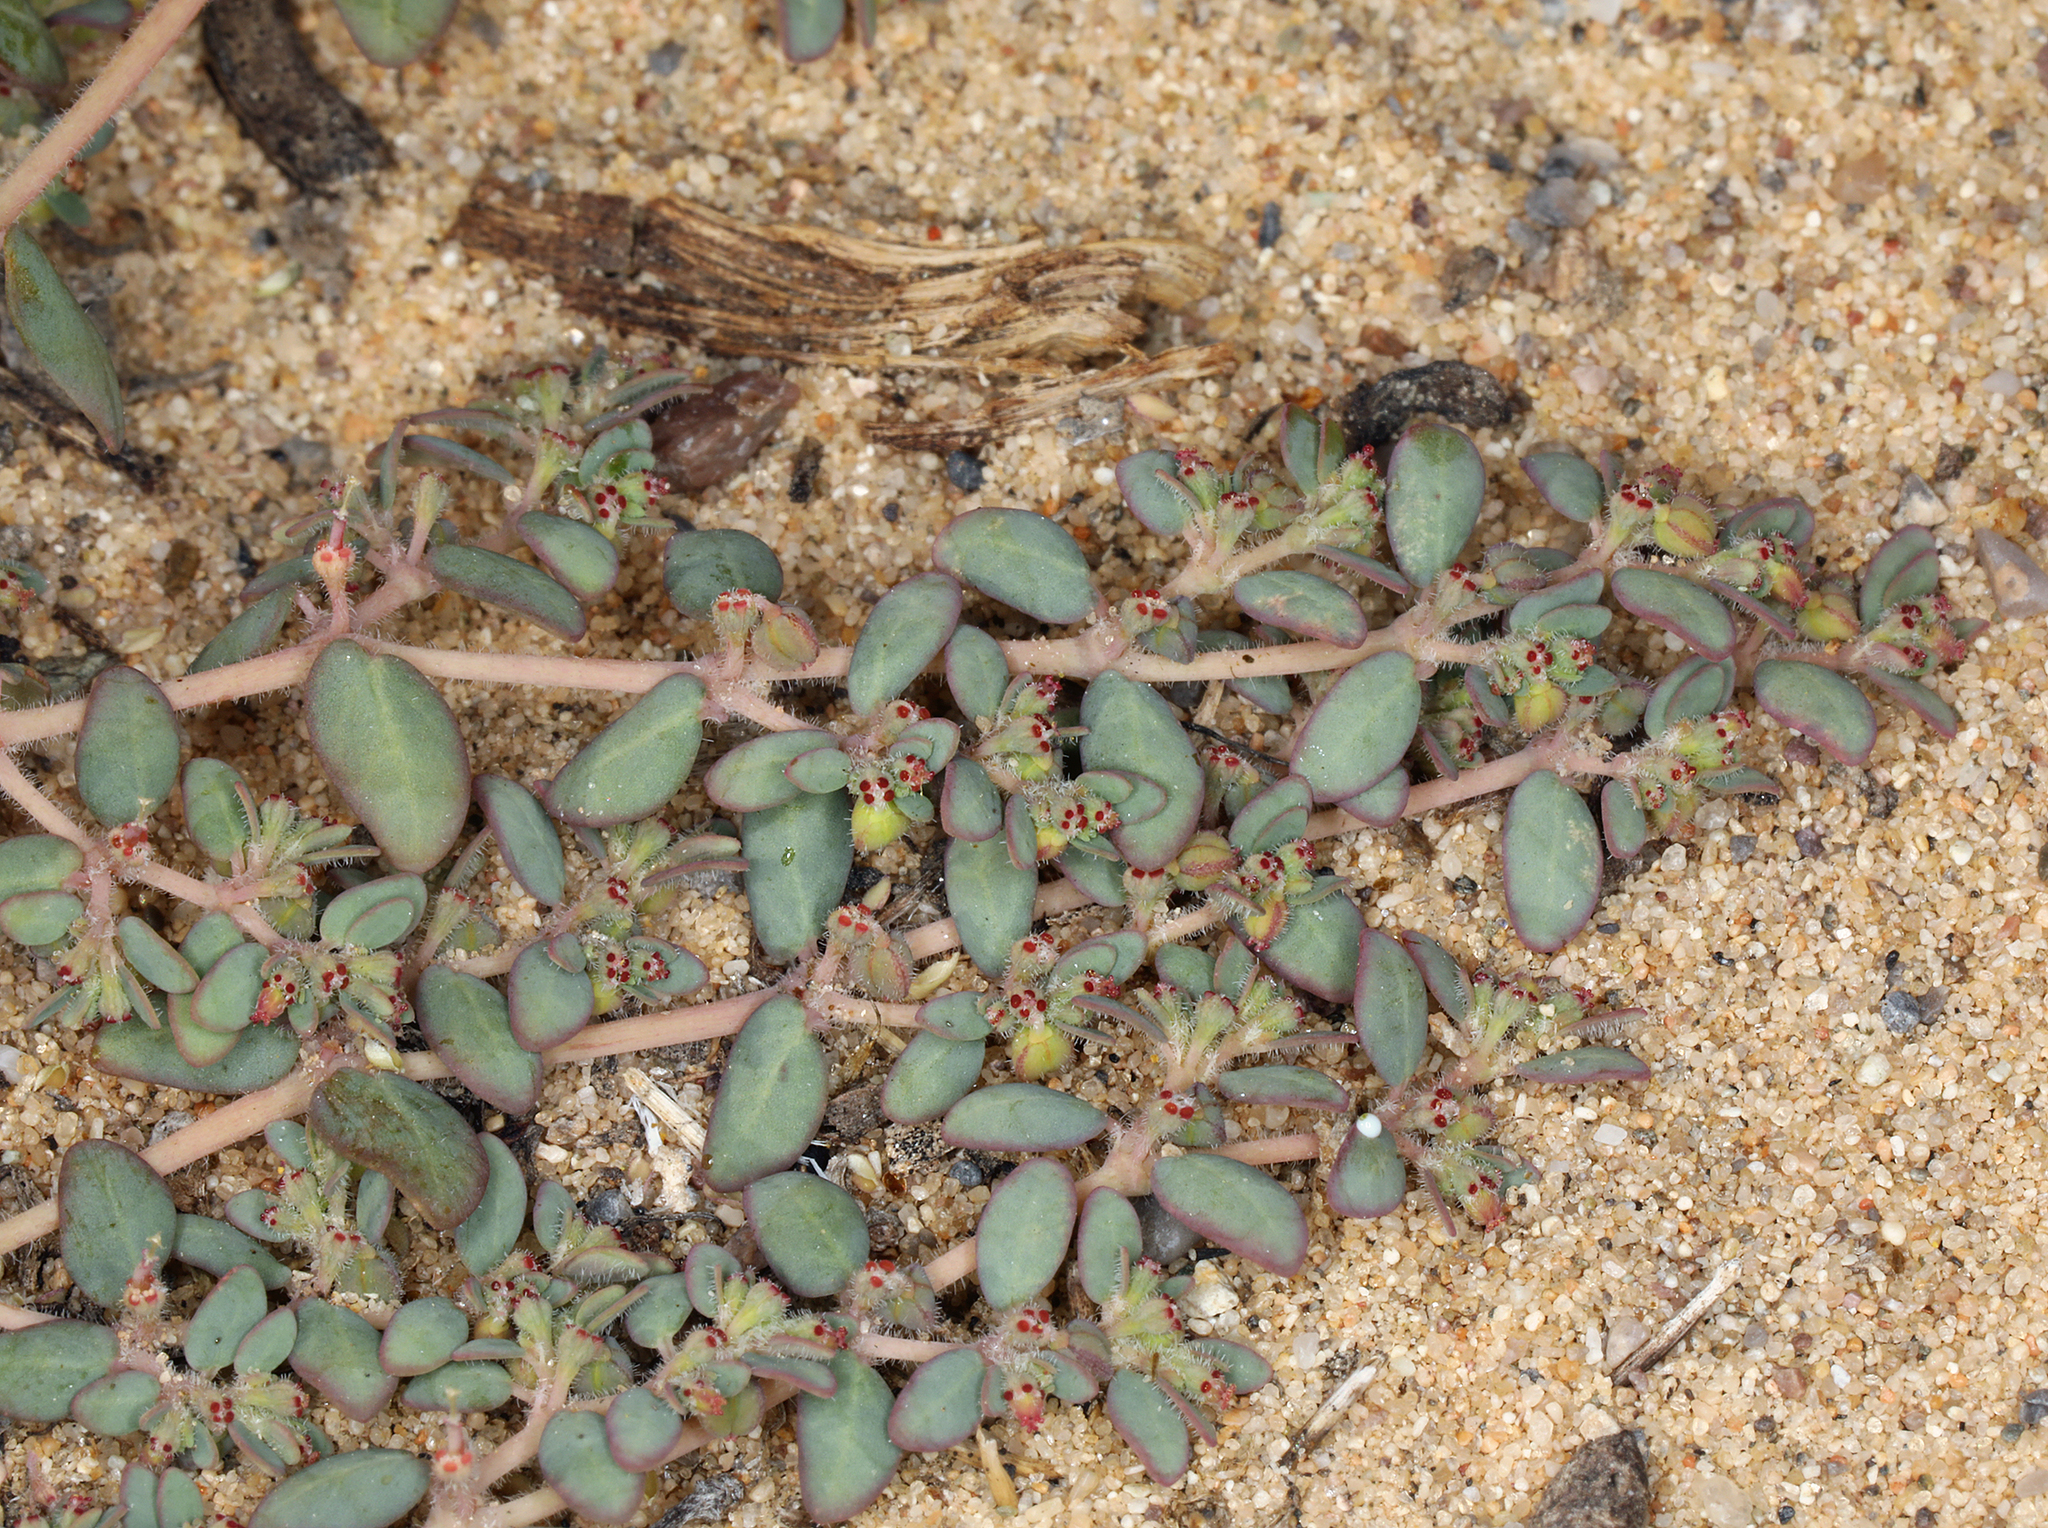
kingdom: Plantae
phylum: Tracheophyta
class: Magnoliopsida
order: Malpighiales
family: Euphorbiaceae
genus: Euphorbia
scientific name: Euphorbia micromera
